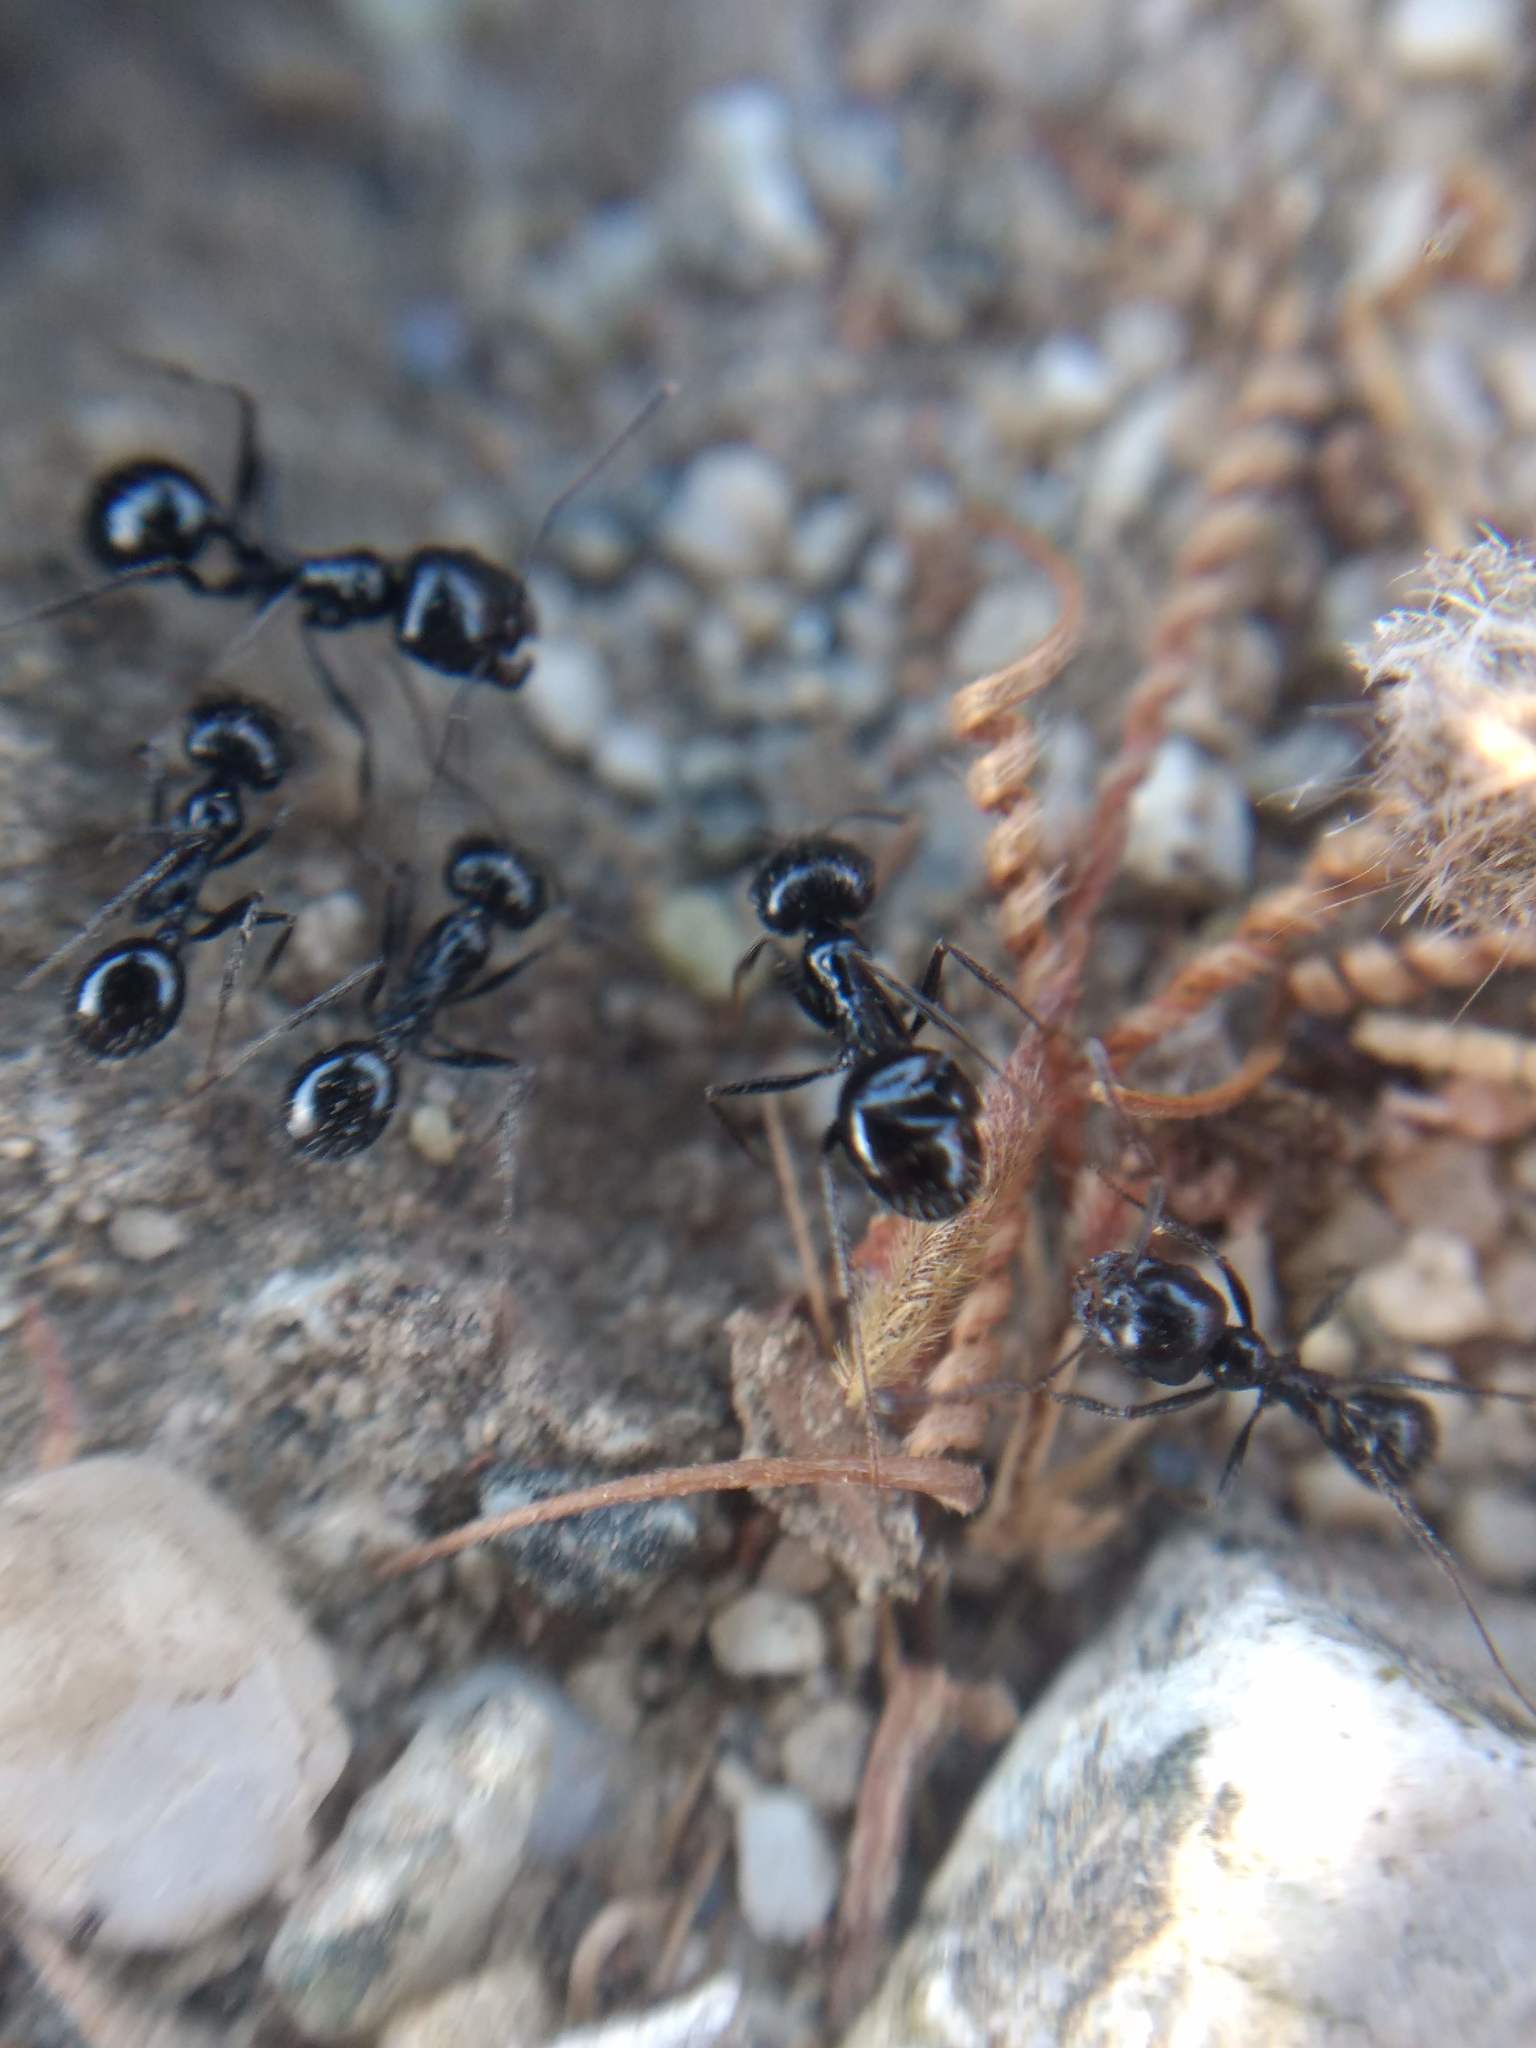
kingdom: Animalia
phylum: Arthropoda
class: Insecta
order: Hymenoptera
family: Formicidae
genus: Messor
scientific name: Messor pergandei
